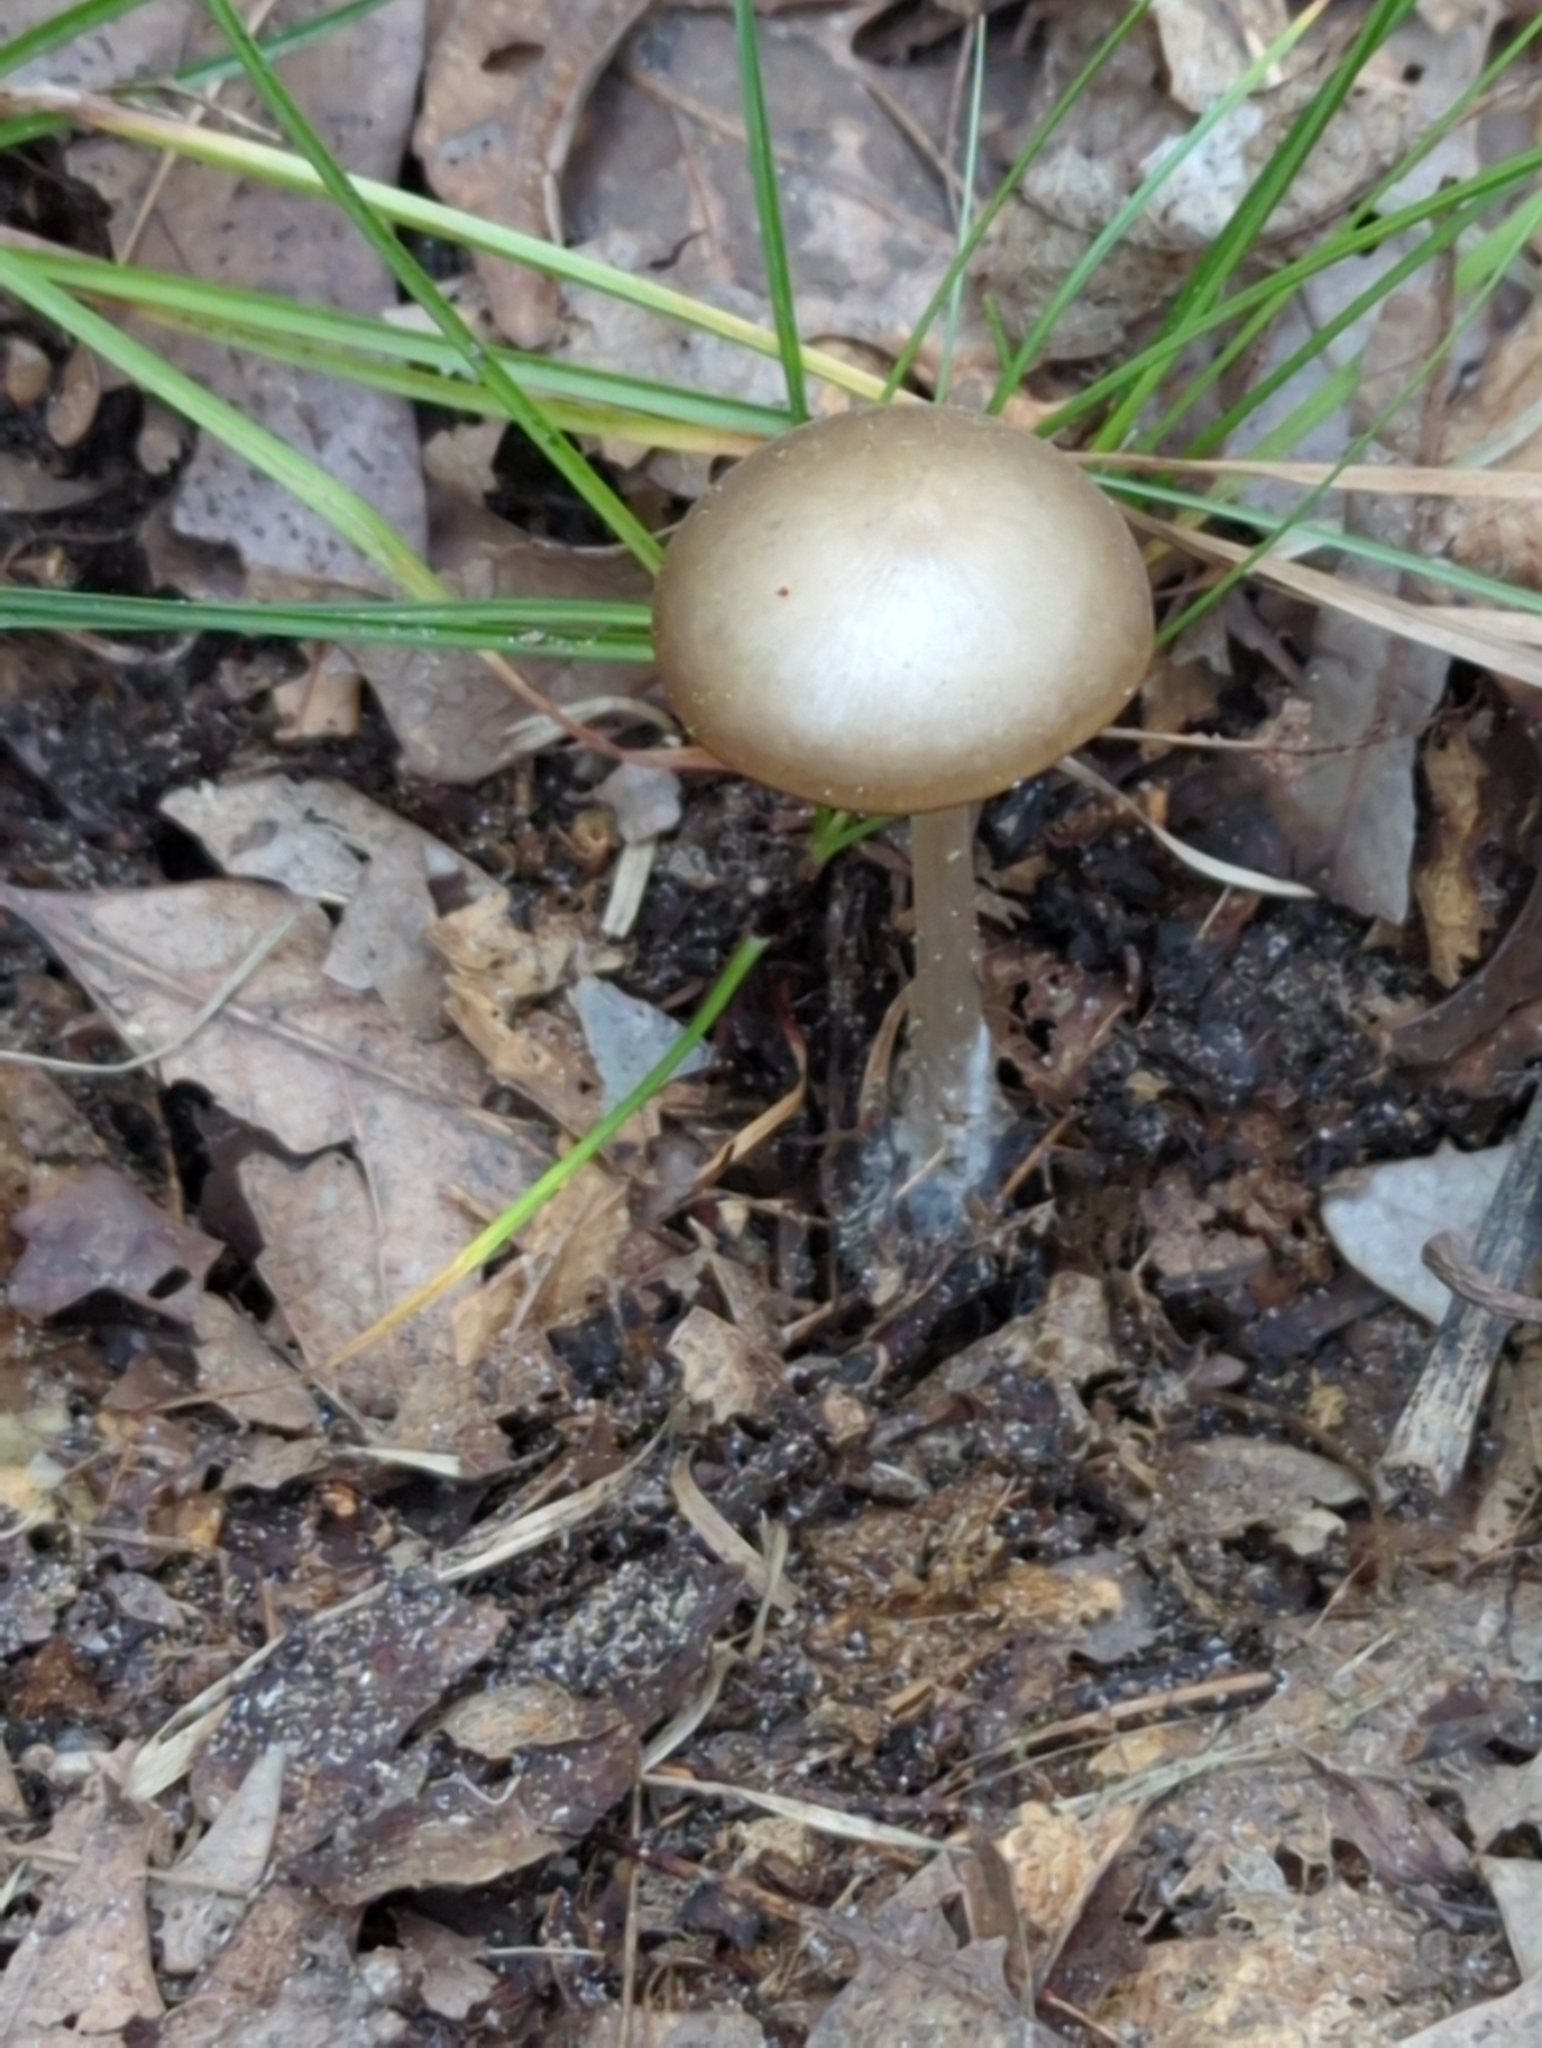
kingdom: Fungi
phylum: Basidiomycota
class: Agaricomycetes
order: Agaricales
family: Entolomataceae
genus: Entoloma
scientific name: Entoloma psammophilohebes
